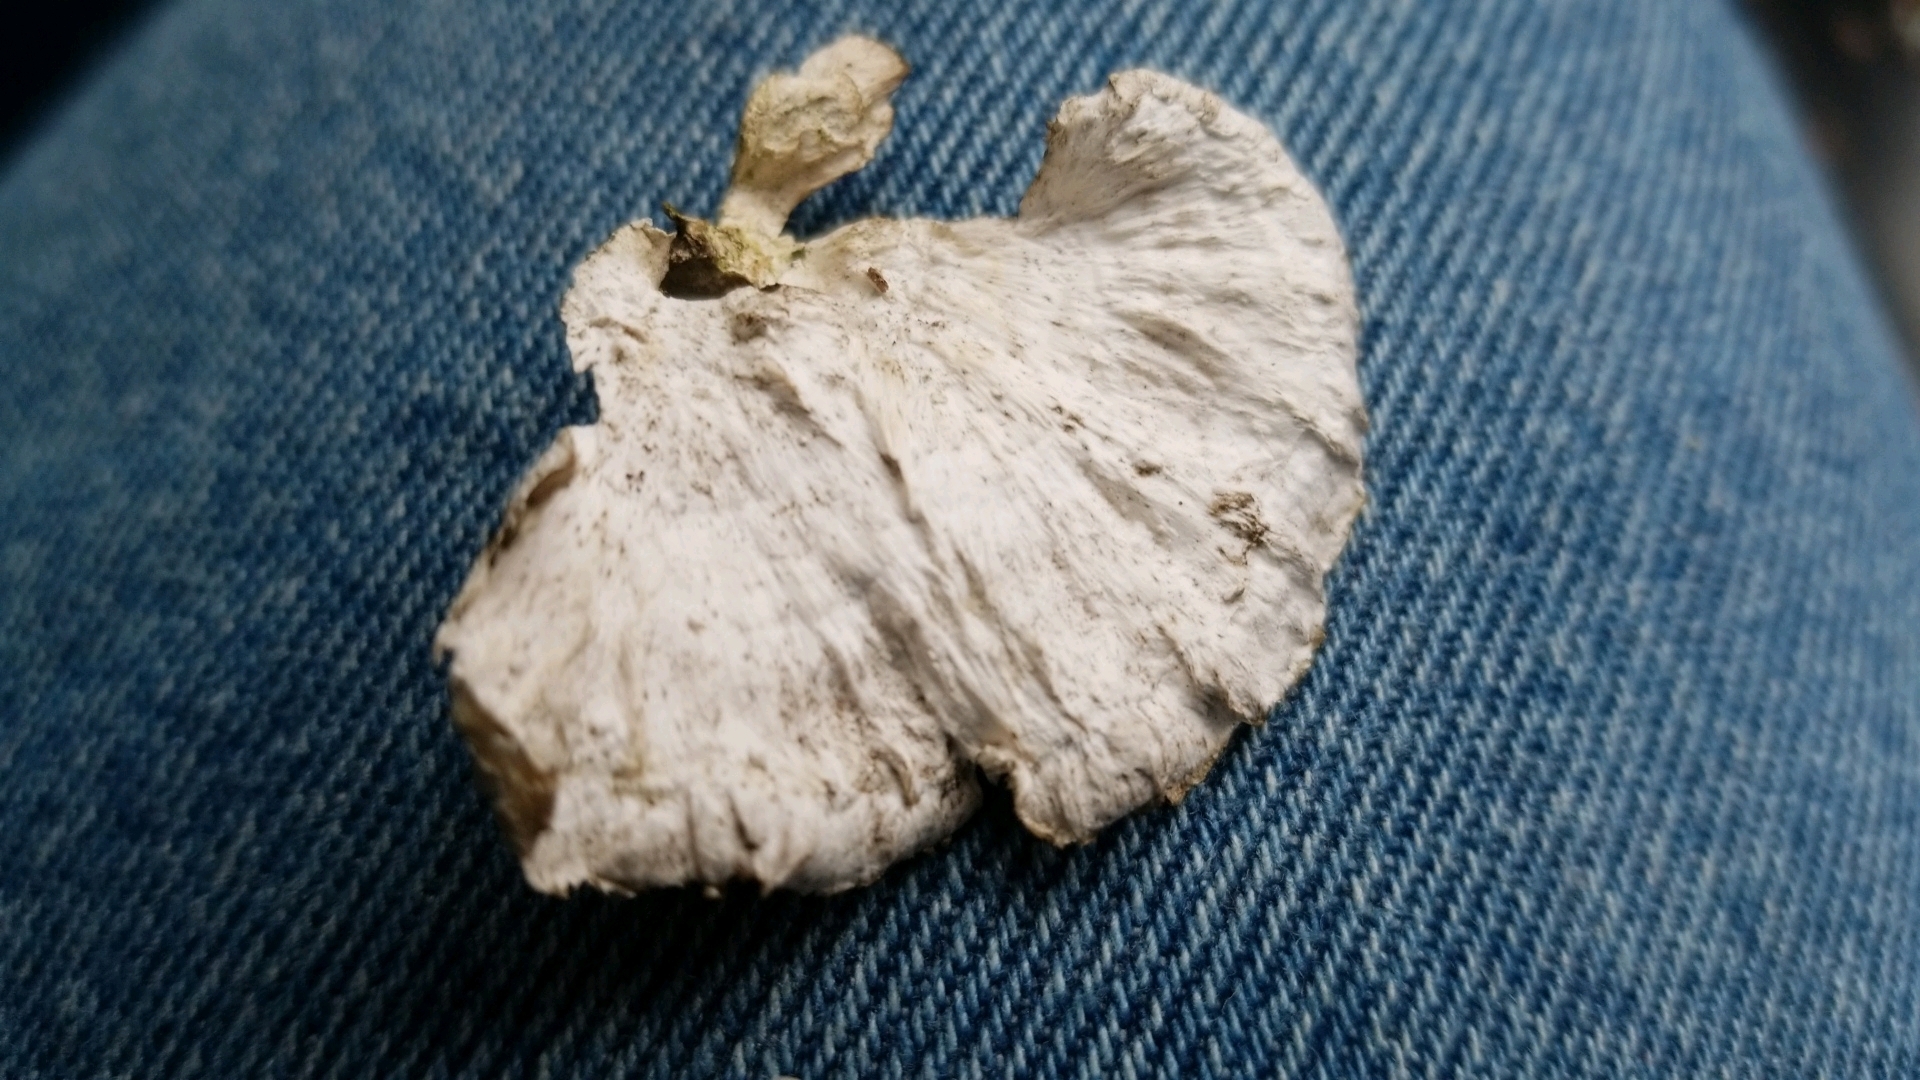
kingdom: Fungi
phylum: Basidiomycota
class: Agaricomycetes
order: Polyporales
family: Polyporaceae
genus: Poronidulus
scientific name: Poronidulus conchifer
